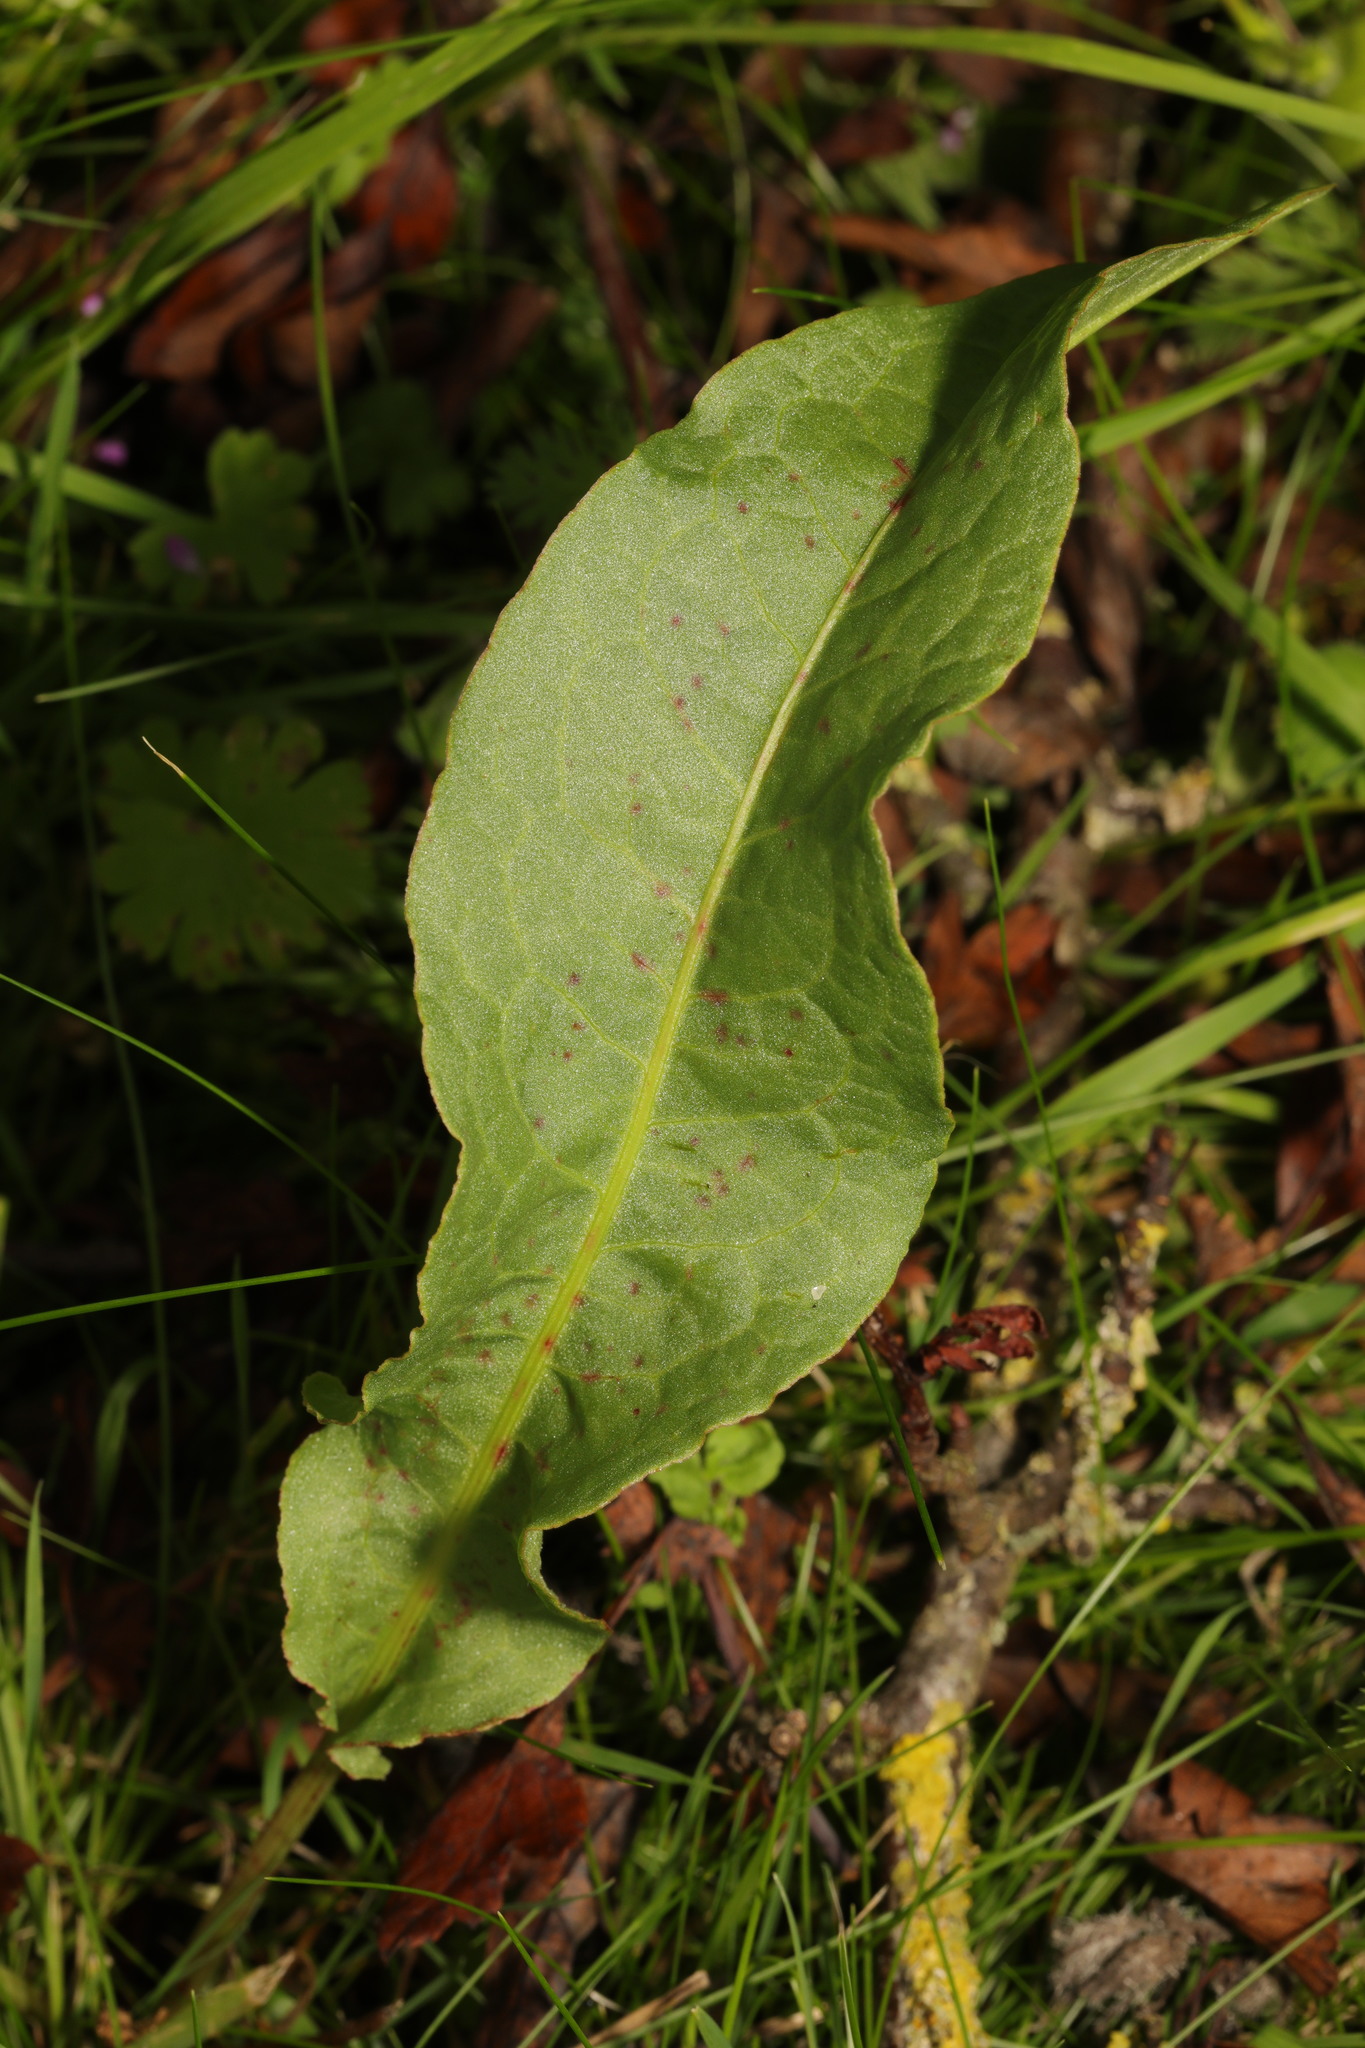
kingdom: Plantae
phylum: Tracheophyta
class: Magnoliopsida
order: Caryophyllales
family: Polygonaceae
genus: Rumex
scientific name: Rumex crispus
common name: Curled dock
